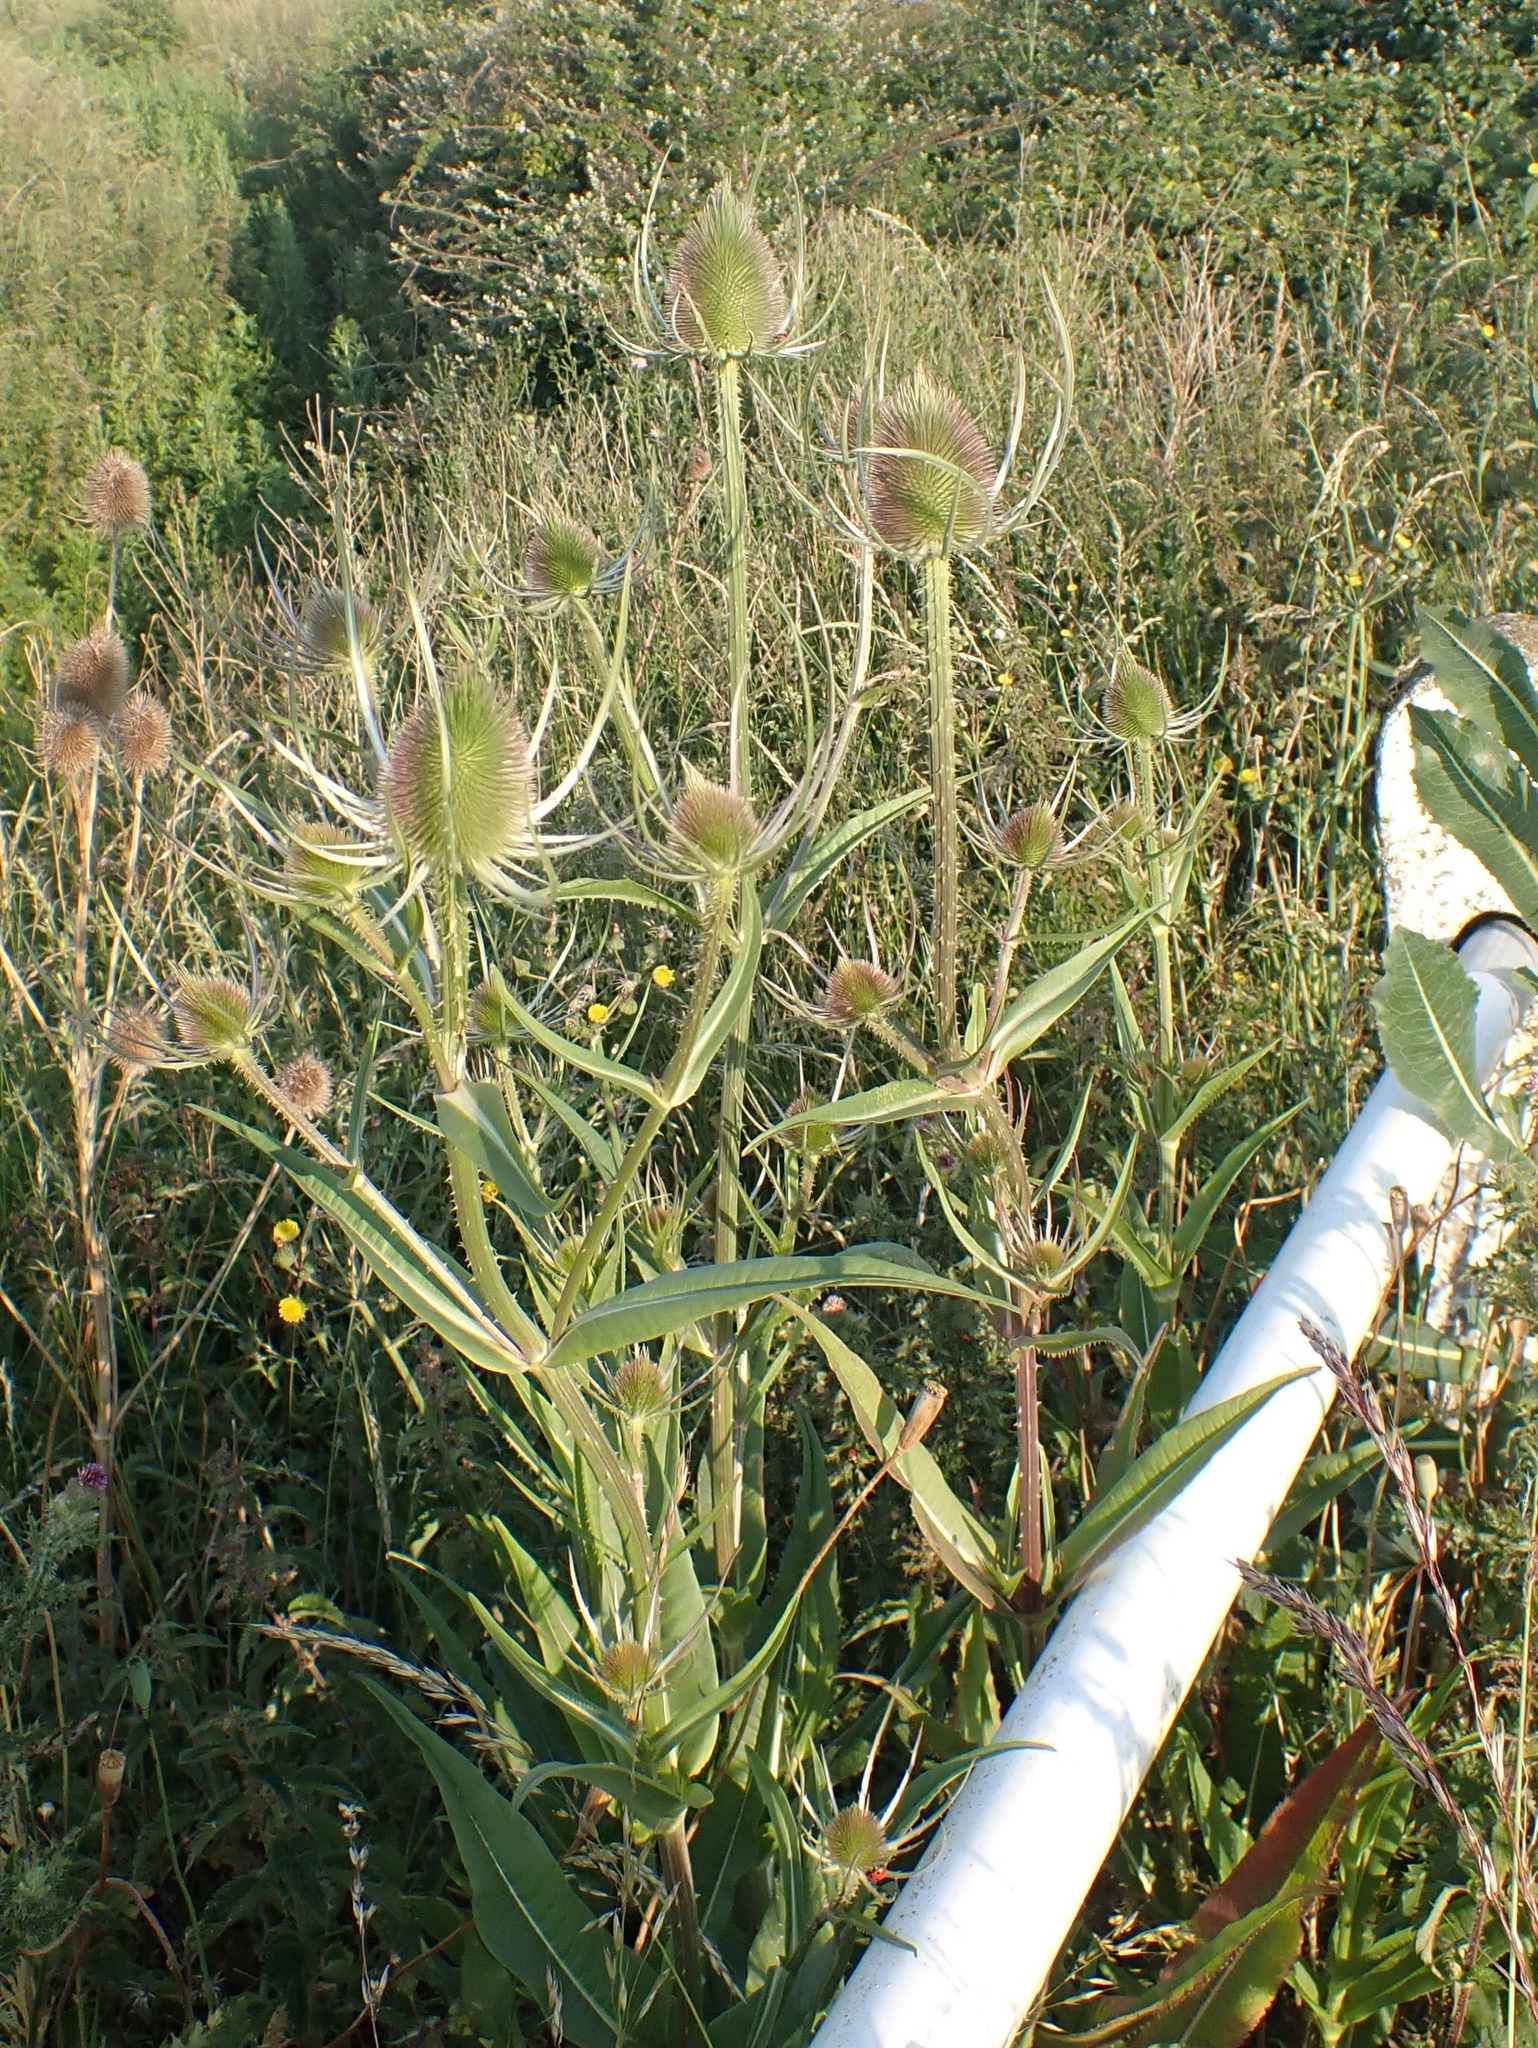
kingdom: Plantae
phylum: Tracheophyta
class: Magnoliopsida
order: Dipsacales
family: Caprifoliaceae
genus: Dipsacus
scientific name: Dipsacus fullonum
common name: Teasel
